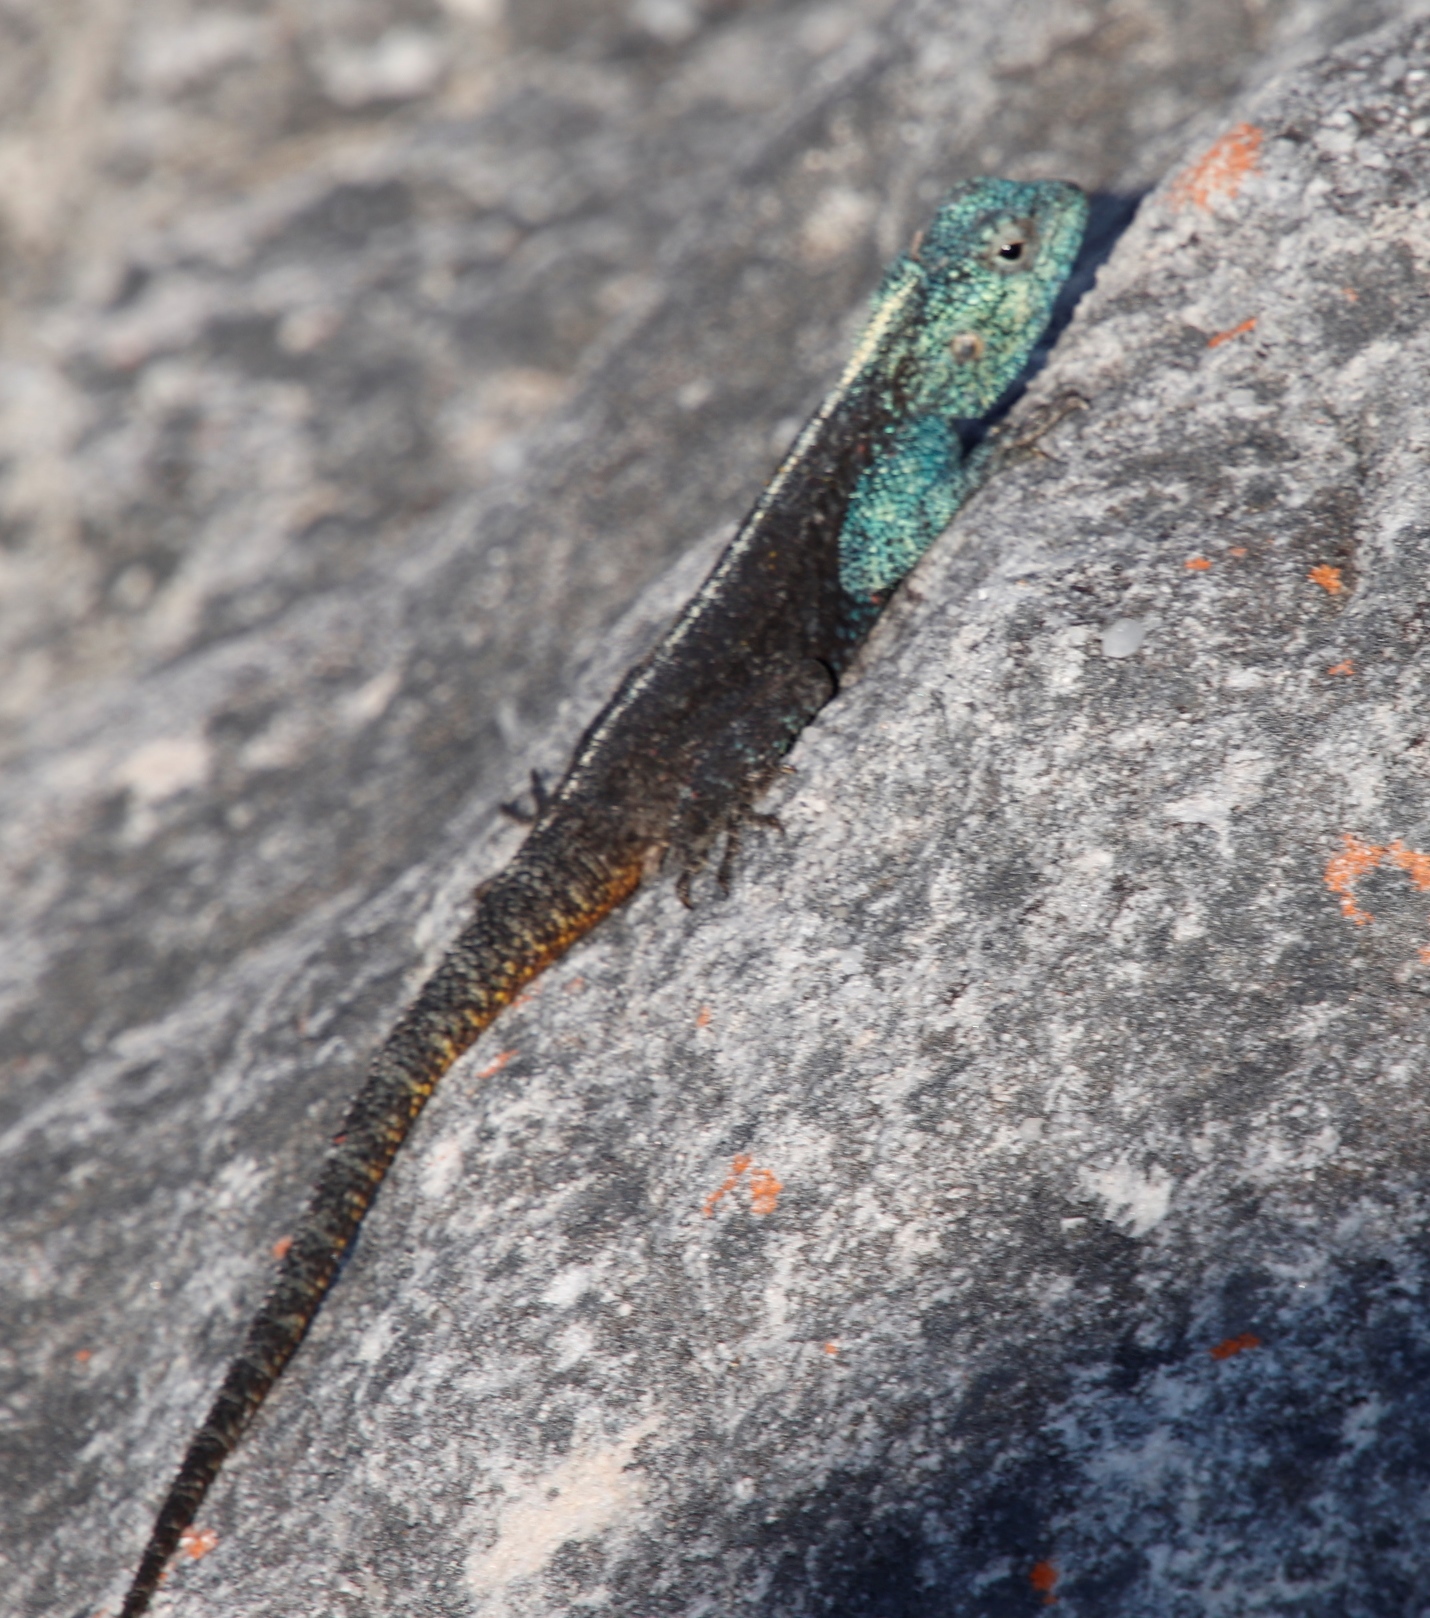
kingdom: Animalia
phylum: Chordata
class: Squamata
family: Agamidae
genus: Agama
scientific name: Agama atra
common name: Southern african rock agama
